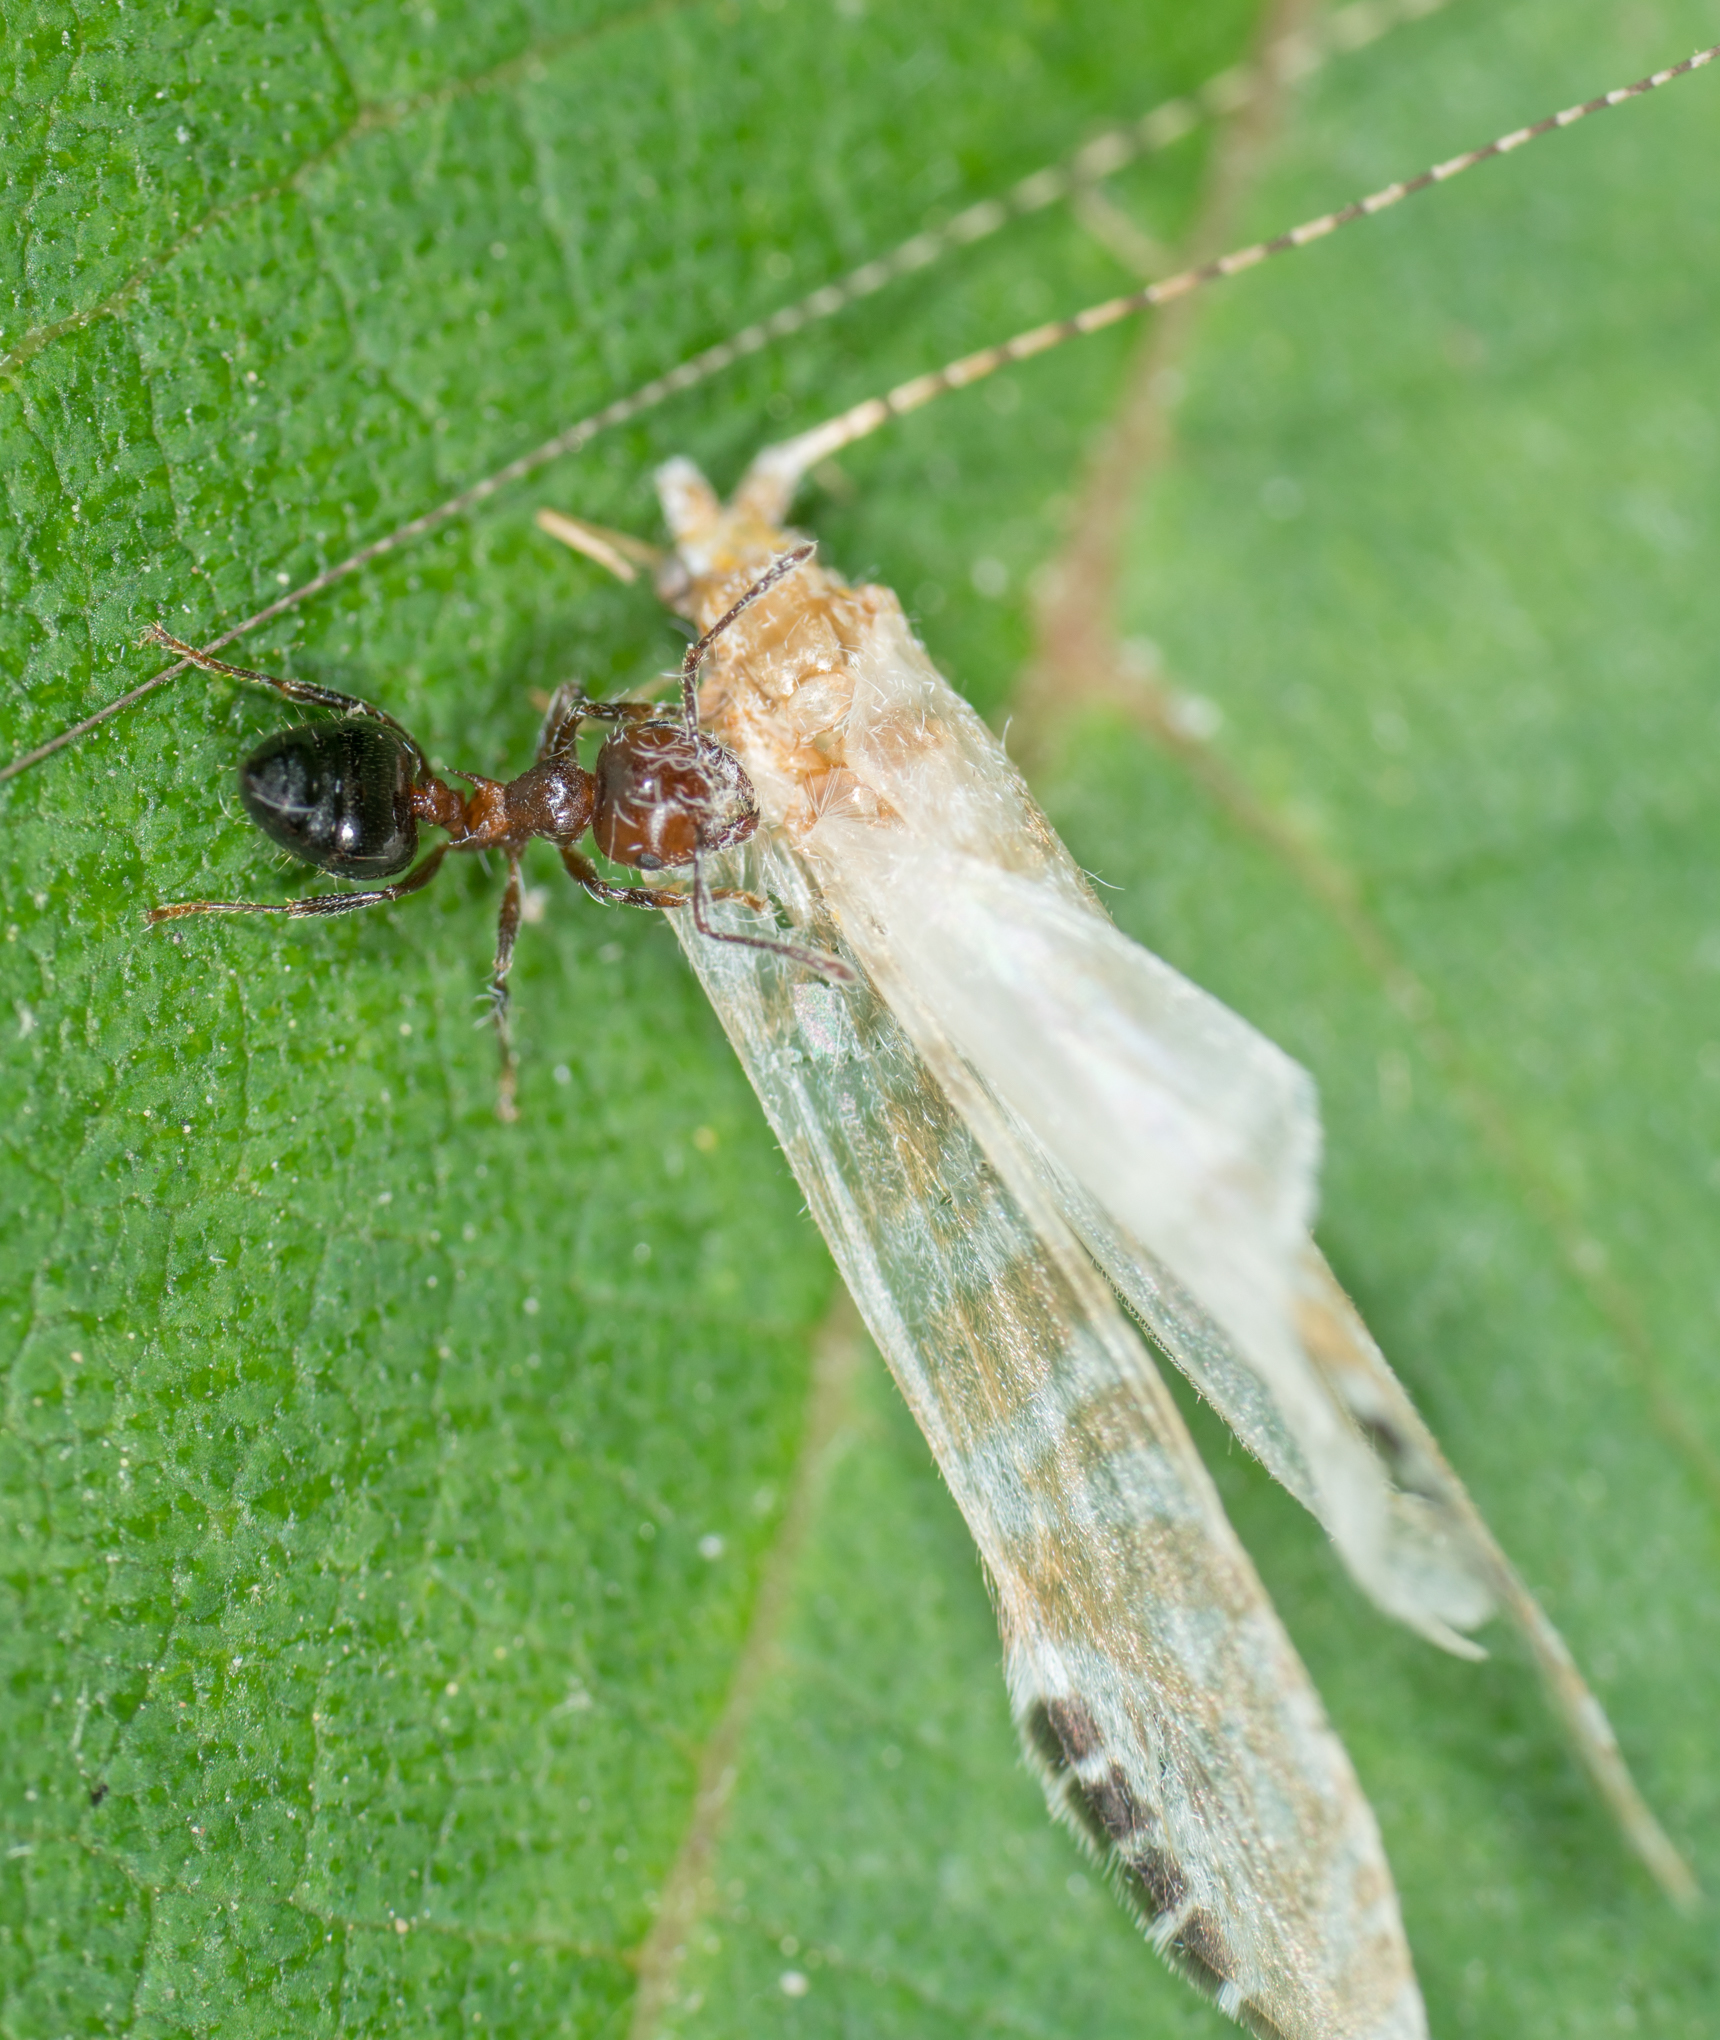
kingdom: Animalia
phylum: Arthropoda
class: Insecta
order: Trichoptera
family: Leptoceridae
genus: Nectopsyche
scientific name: Nectopsyche exquisita
